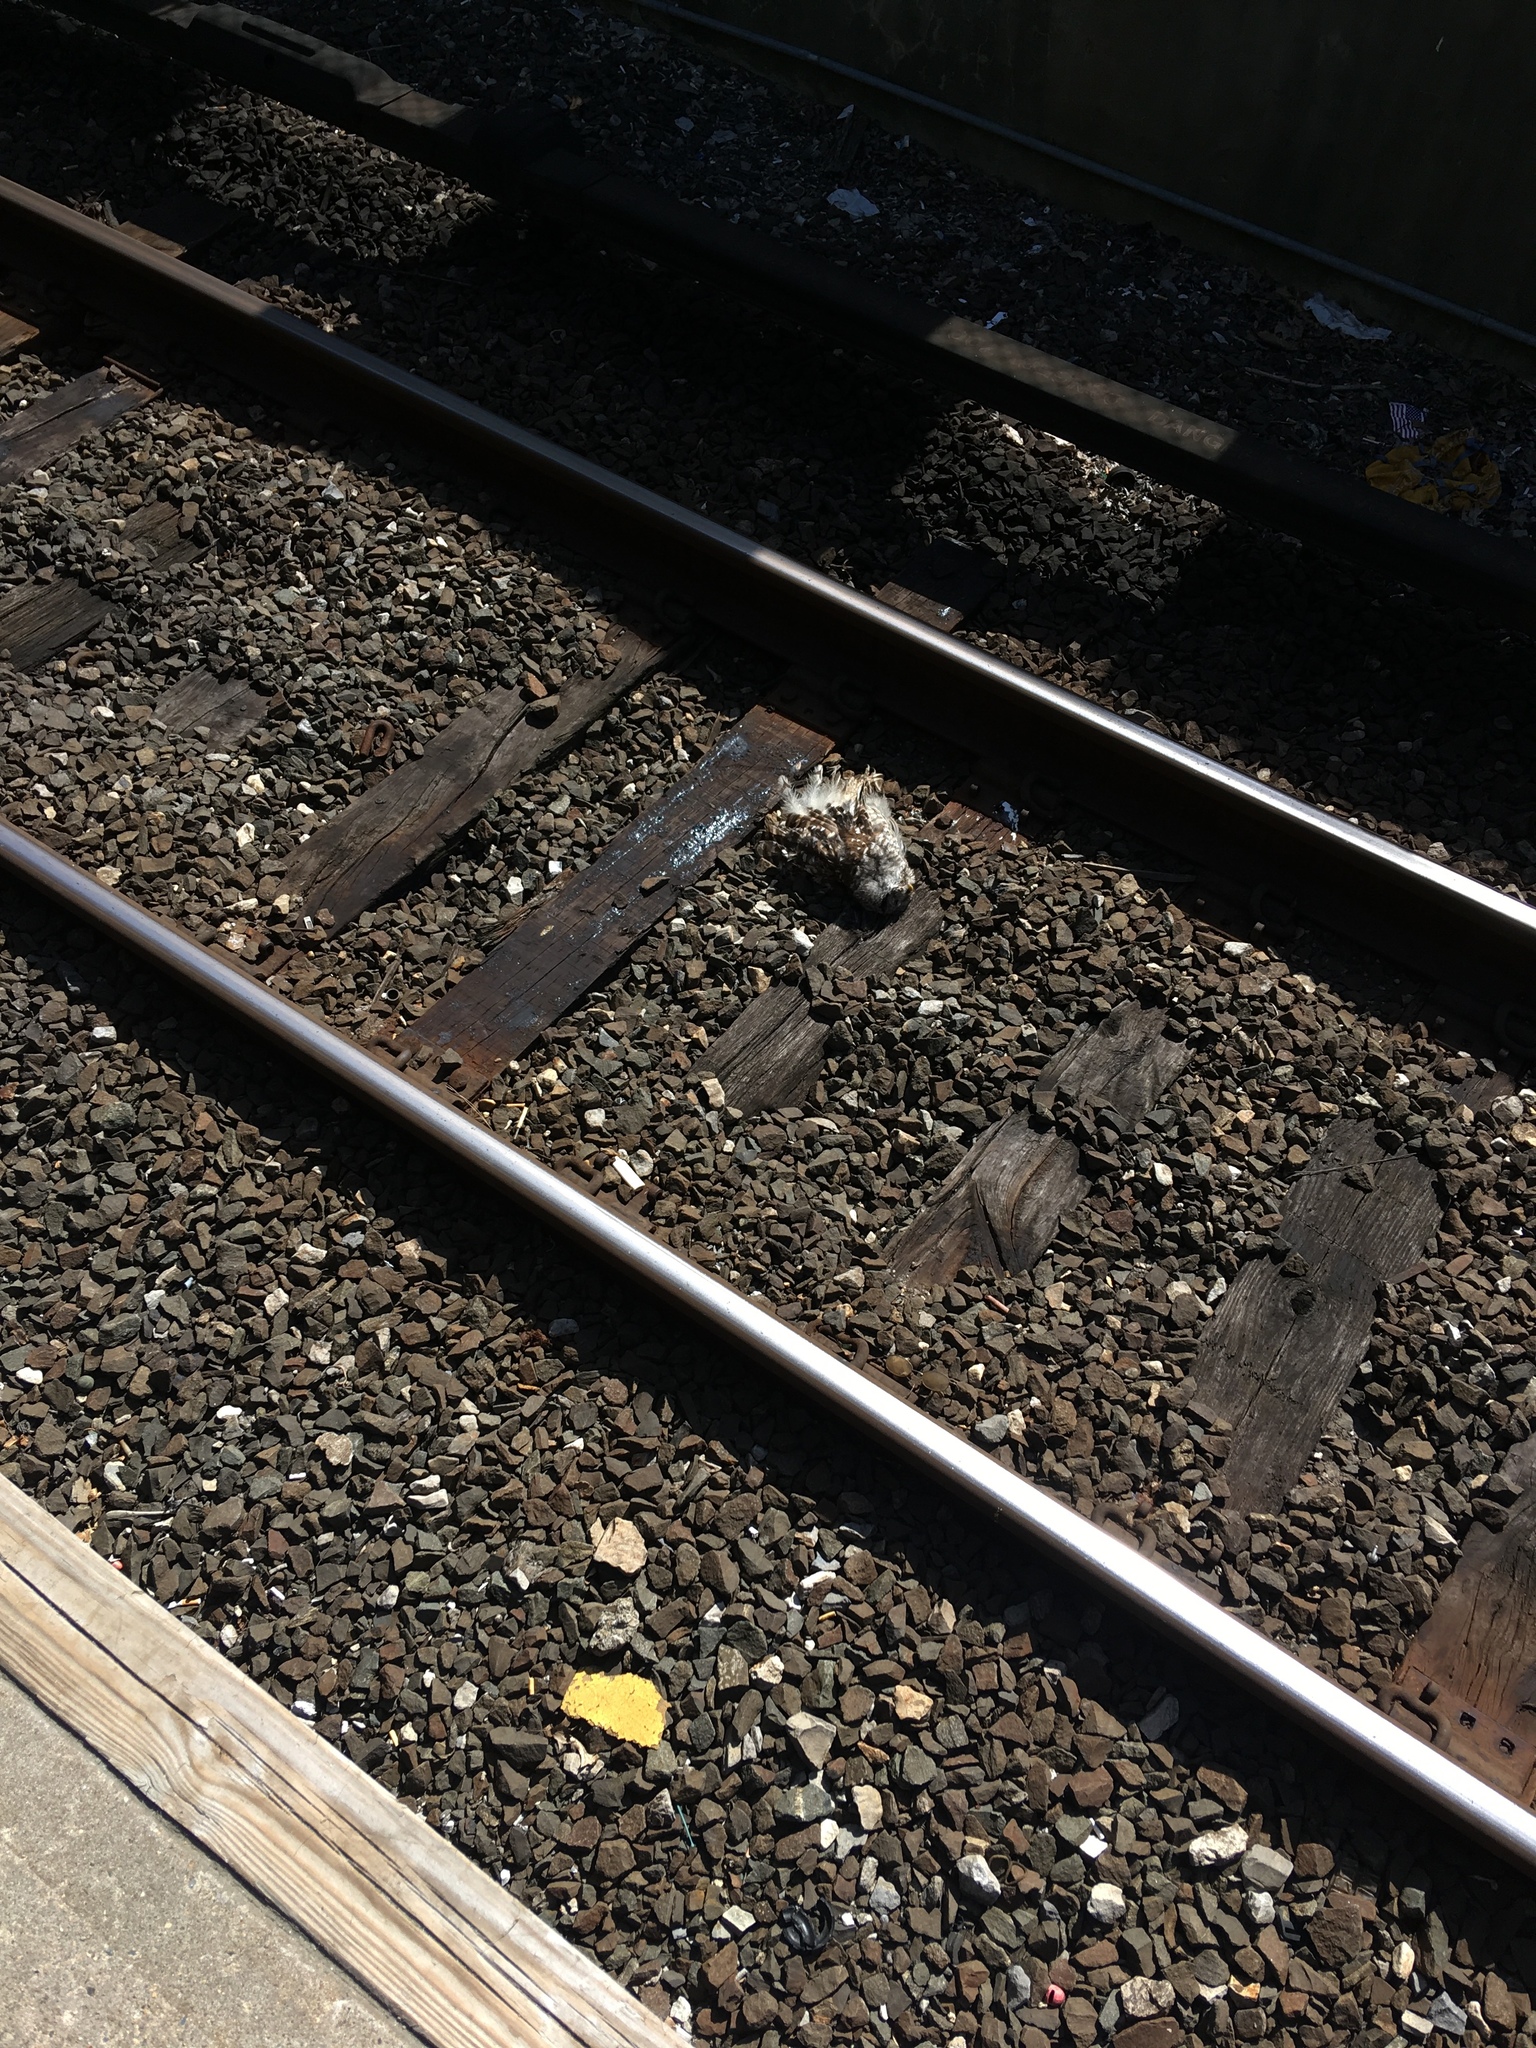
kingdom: Animalia
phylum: Chordata
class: Aves
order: Strigiformes
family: Strigidae
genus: Strix
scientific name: Strix varia
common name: Barred owl
